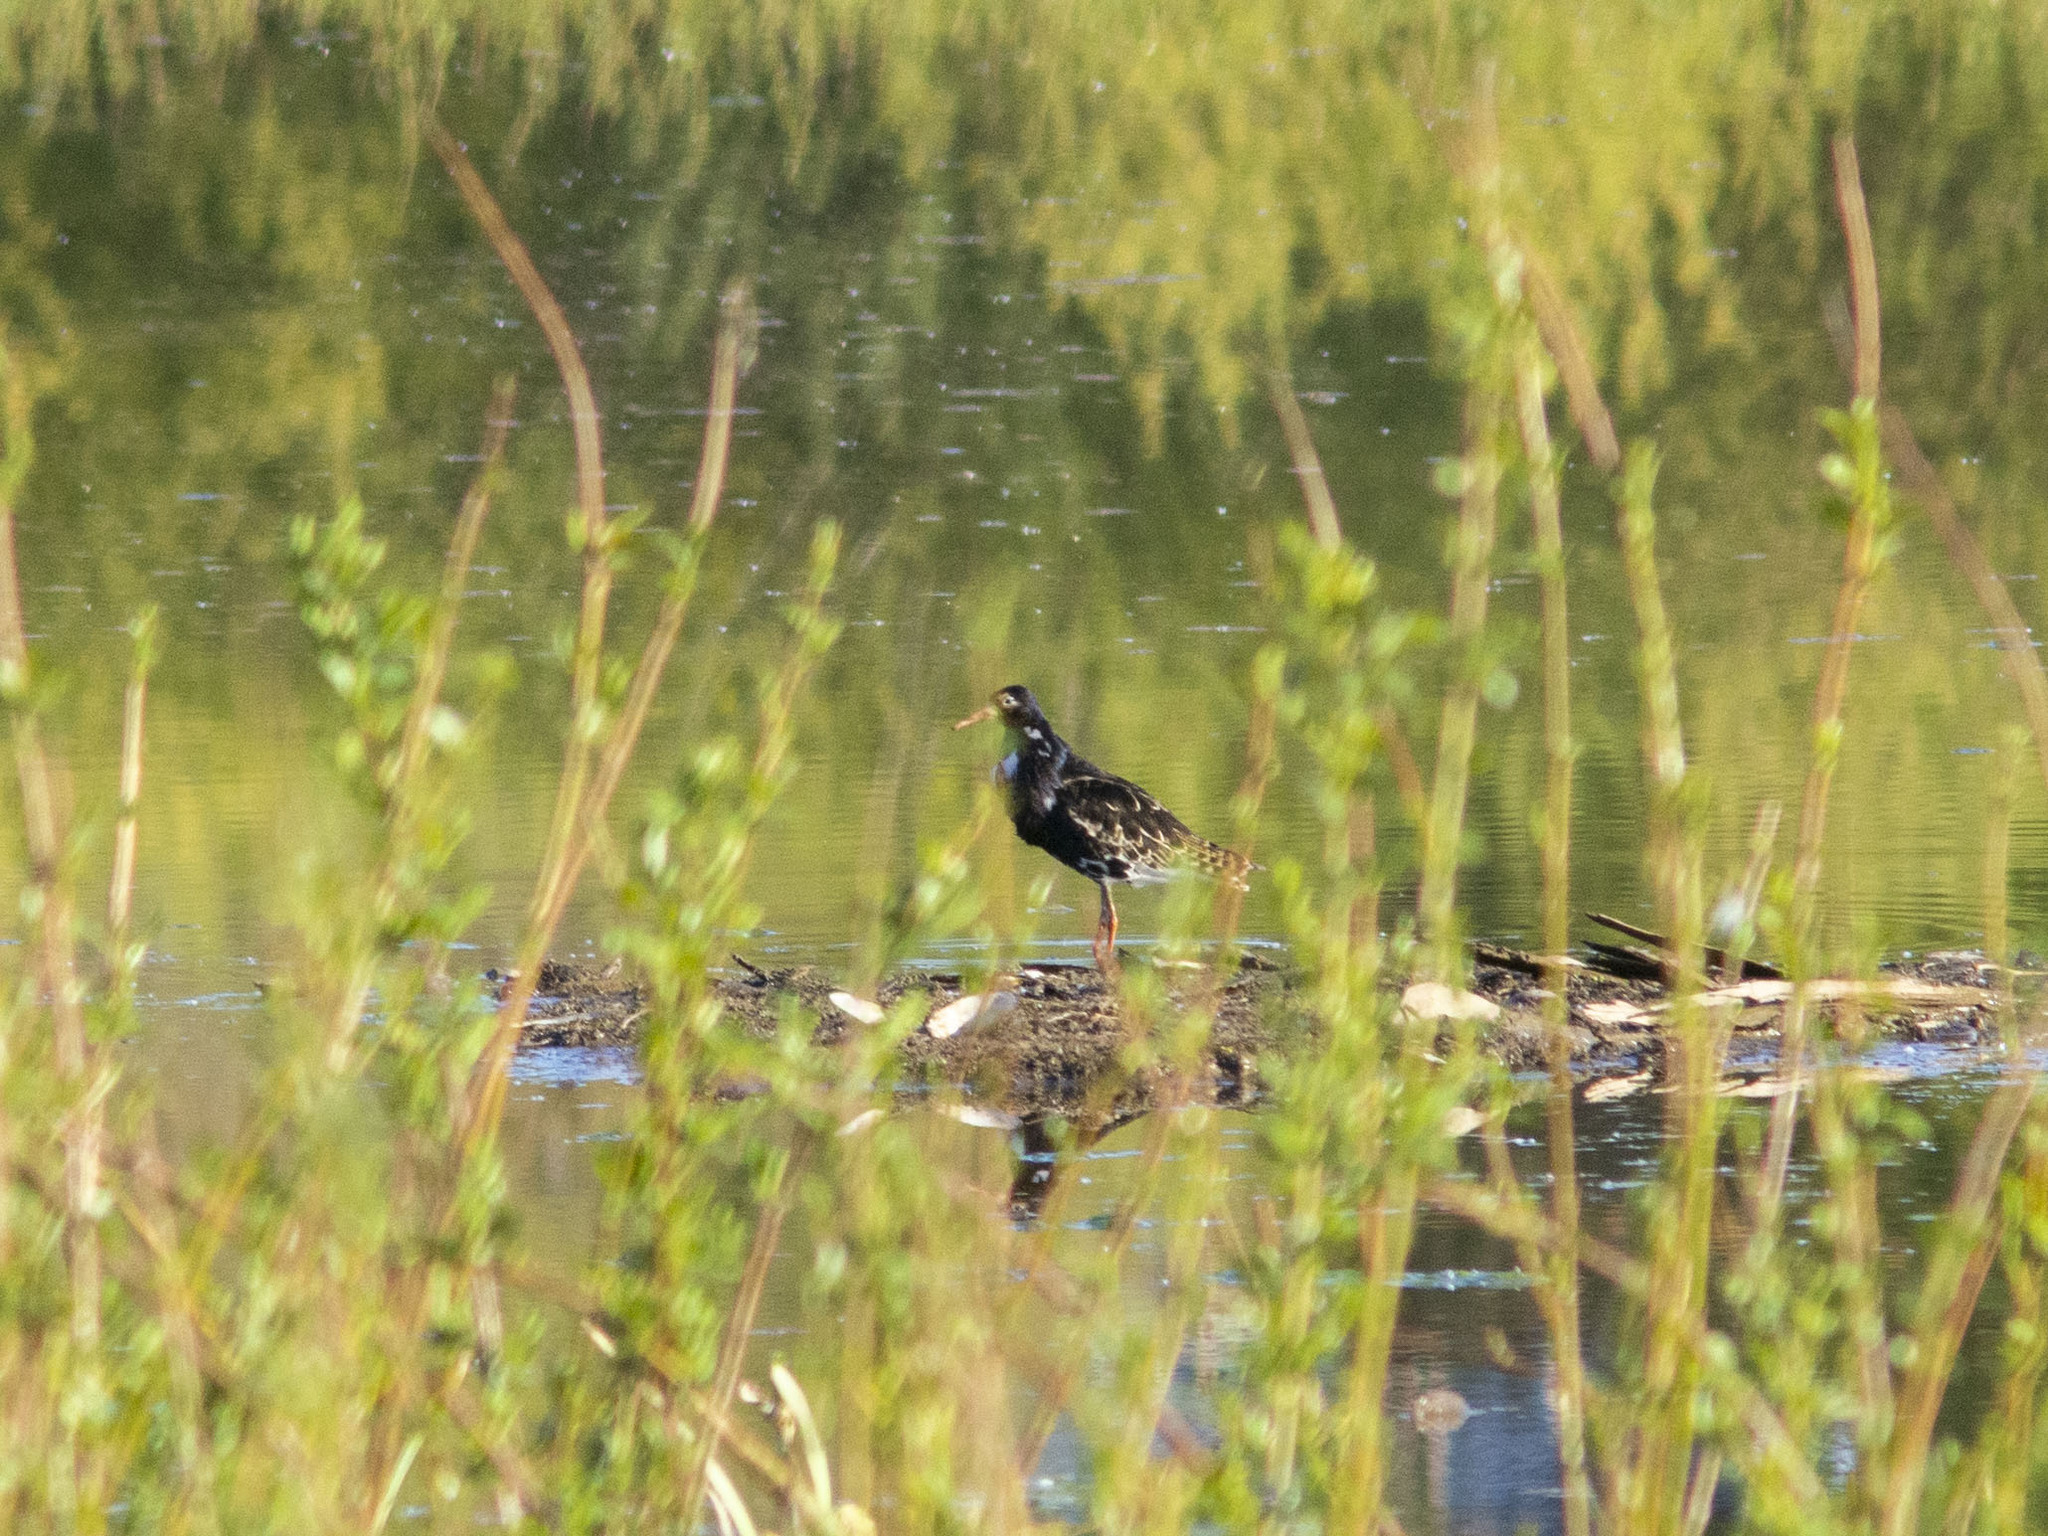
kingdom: Animalia
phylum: Chordata
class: Aves
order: Charadriiformes
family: Scolopacidae
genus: Calidris
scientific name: Calidris pugnax
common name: Ruff
